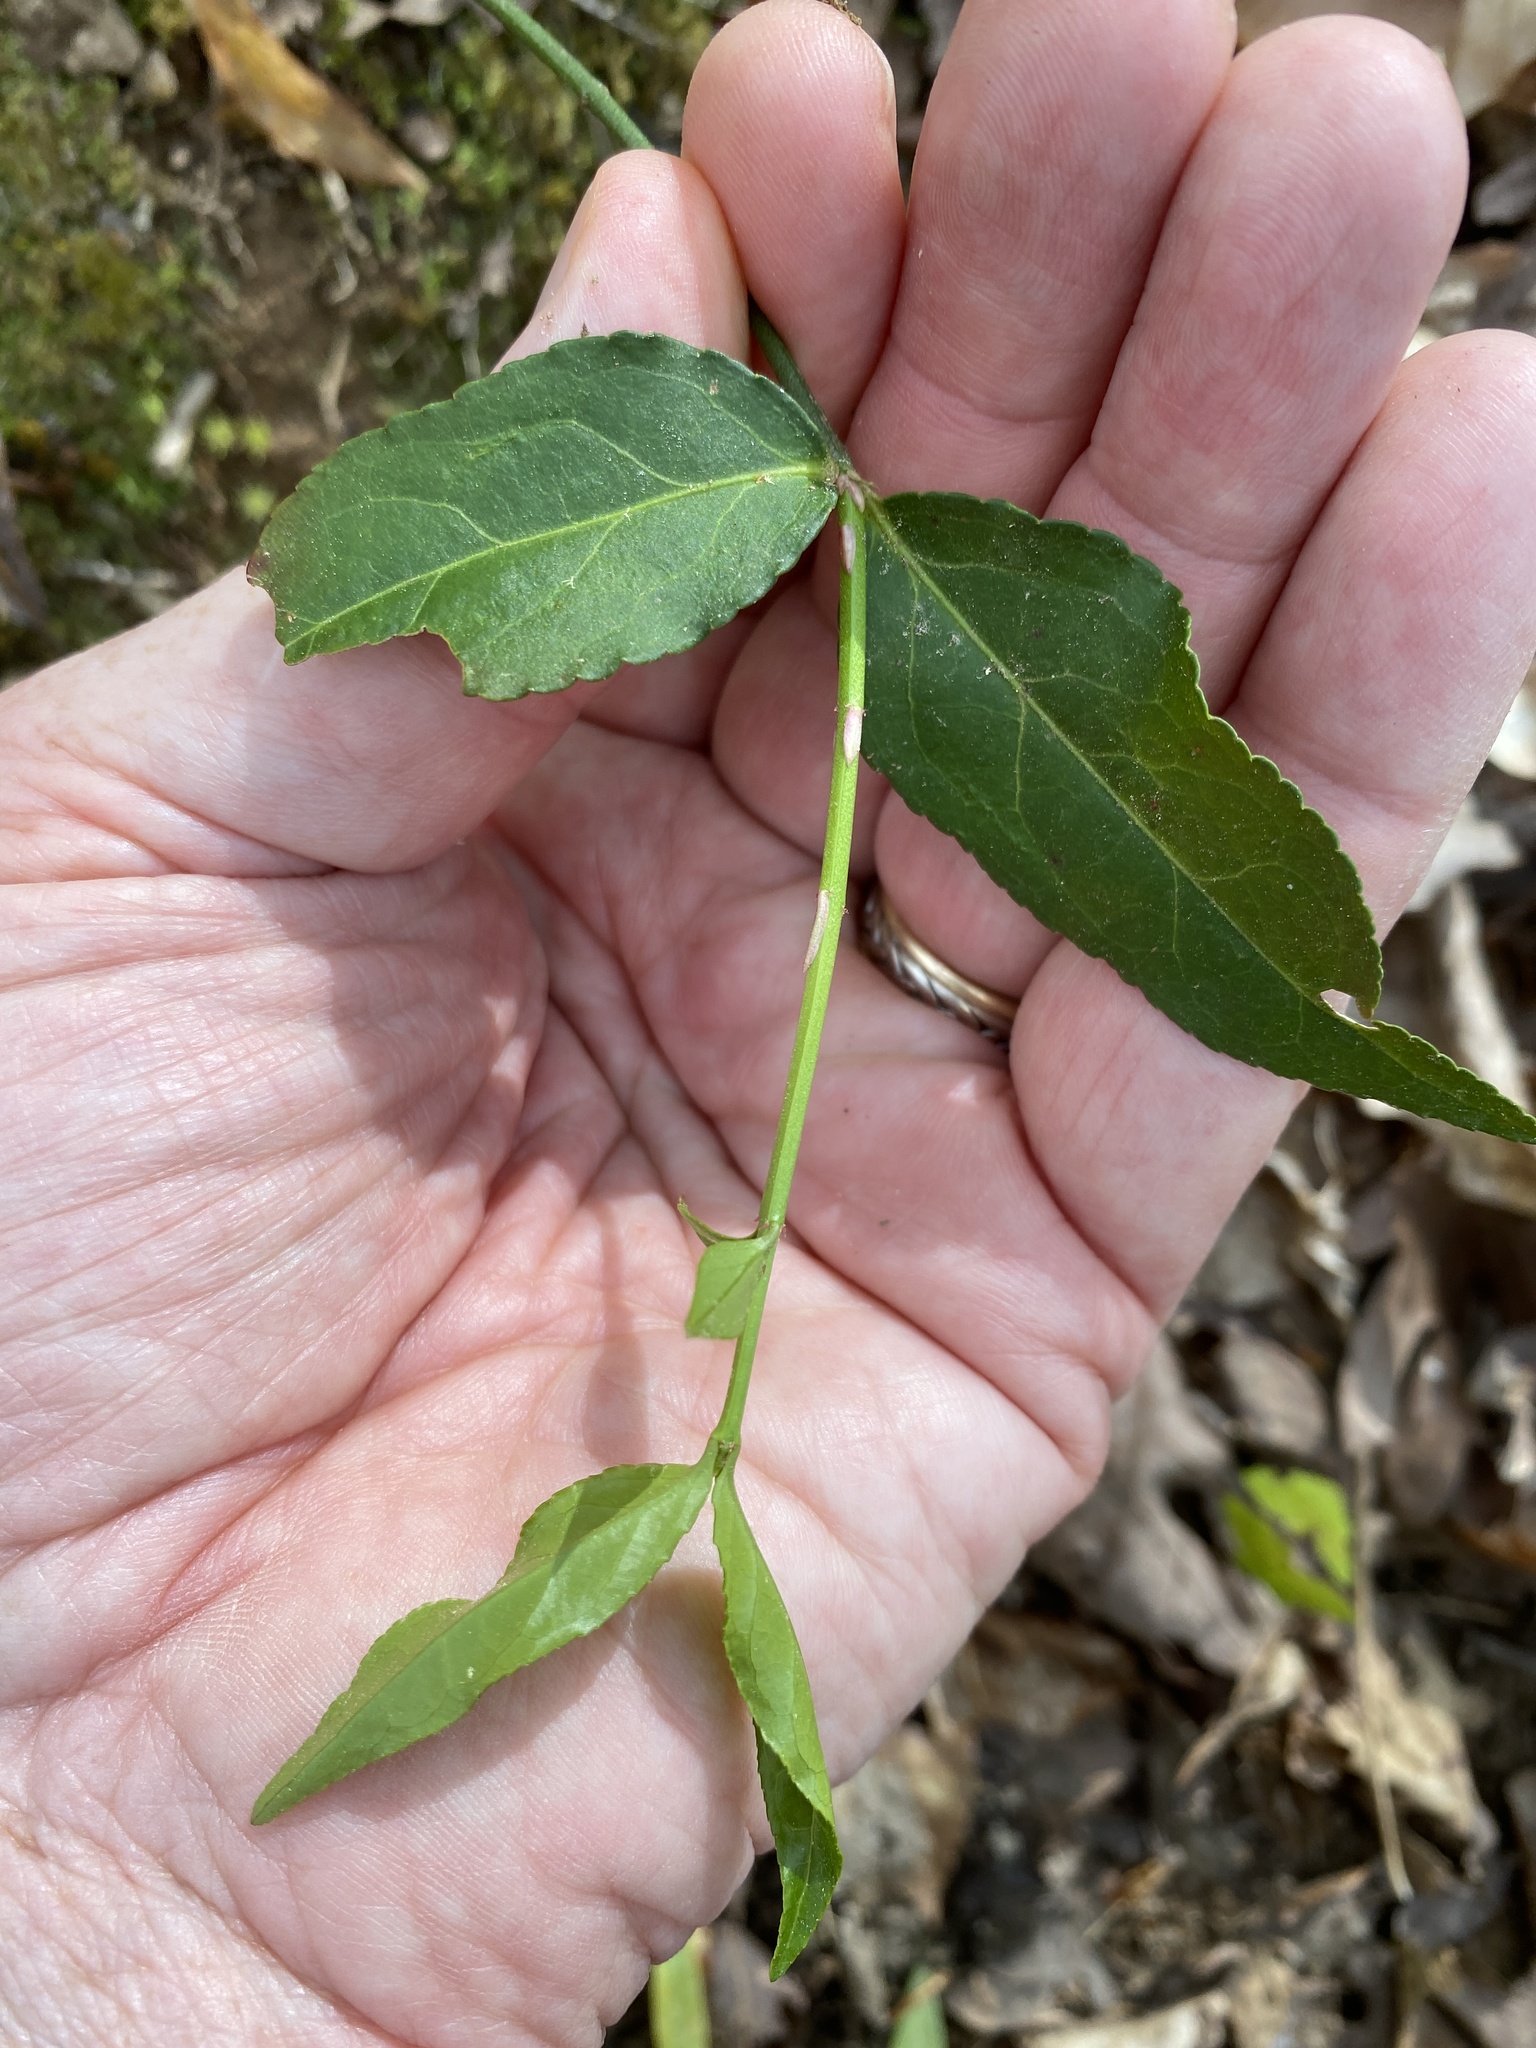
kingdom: Plantae
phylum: Tracheophyta
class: Magnoliopsida
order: Celastrales
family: Celastraceae
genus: Euonymus
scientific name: Euonymus americanus
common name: Bursting-heart
